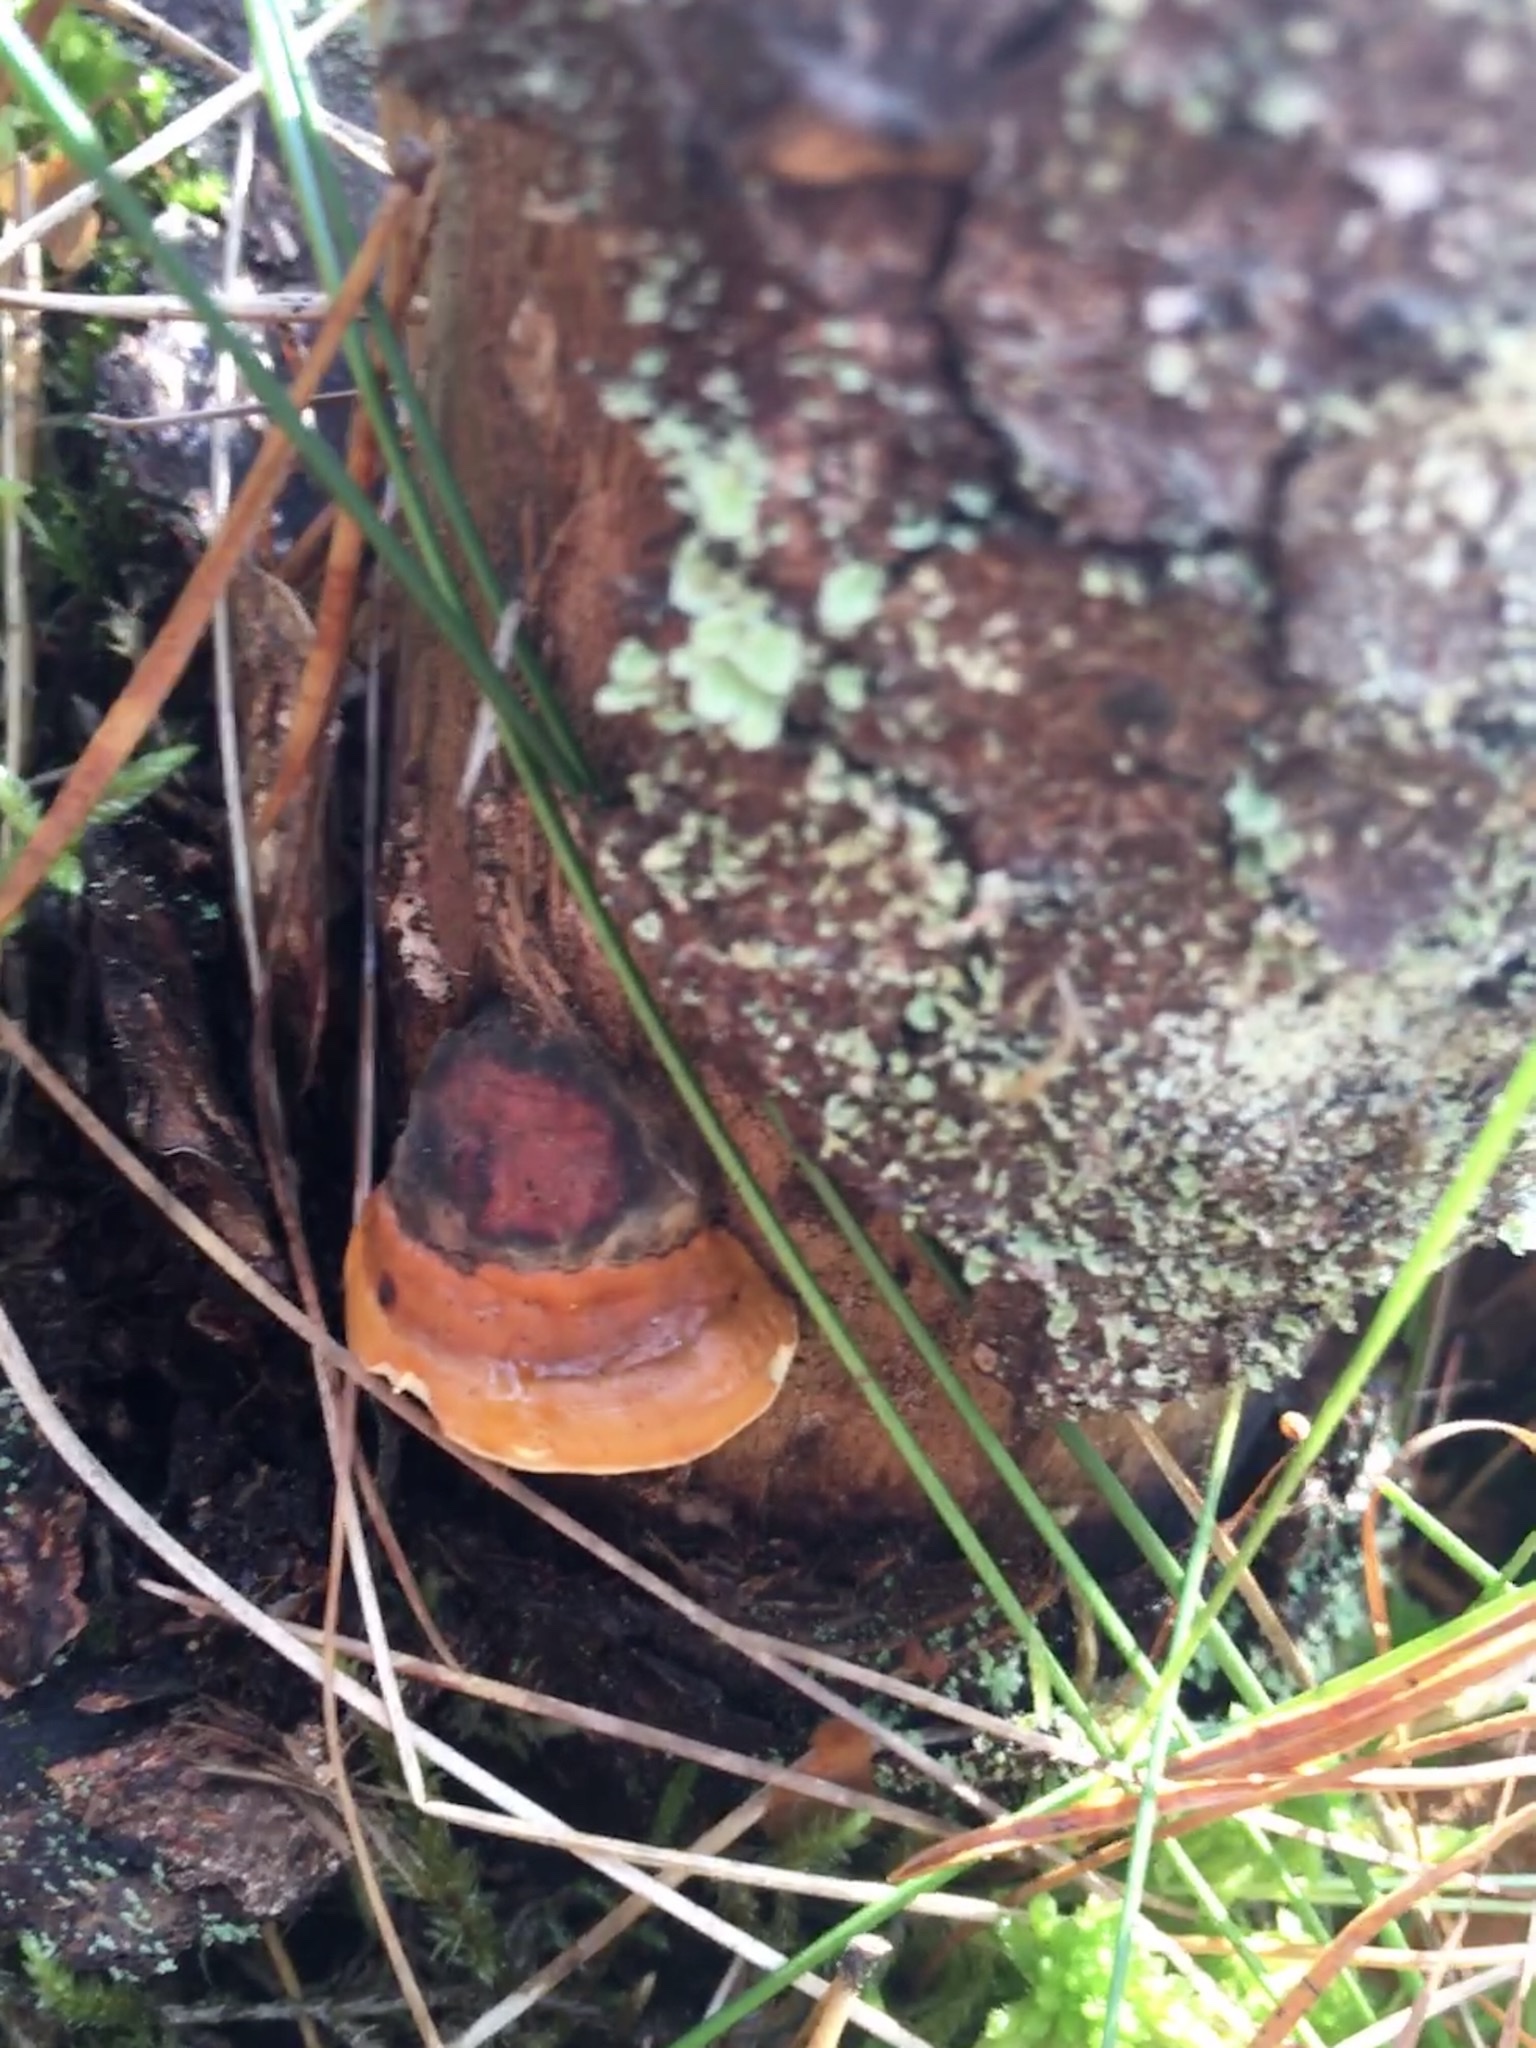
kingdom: Fungi
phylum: Basidiomycota
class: Agaricomycetes
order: Polyporales
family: Fomitopsidaceae
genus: Fomitopsis
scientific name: Fomitopsis pinicola
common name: Red-belted bracket
